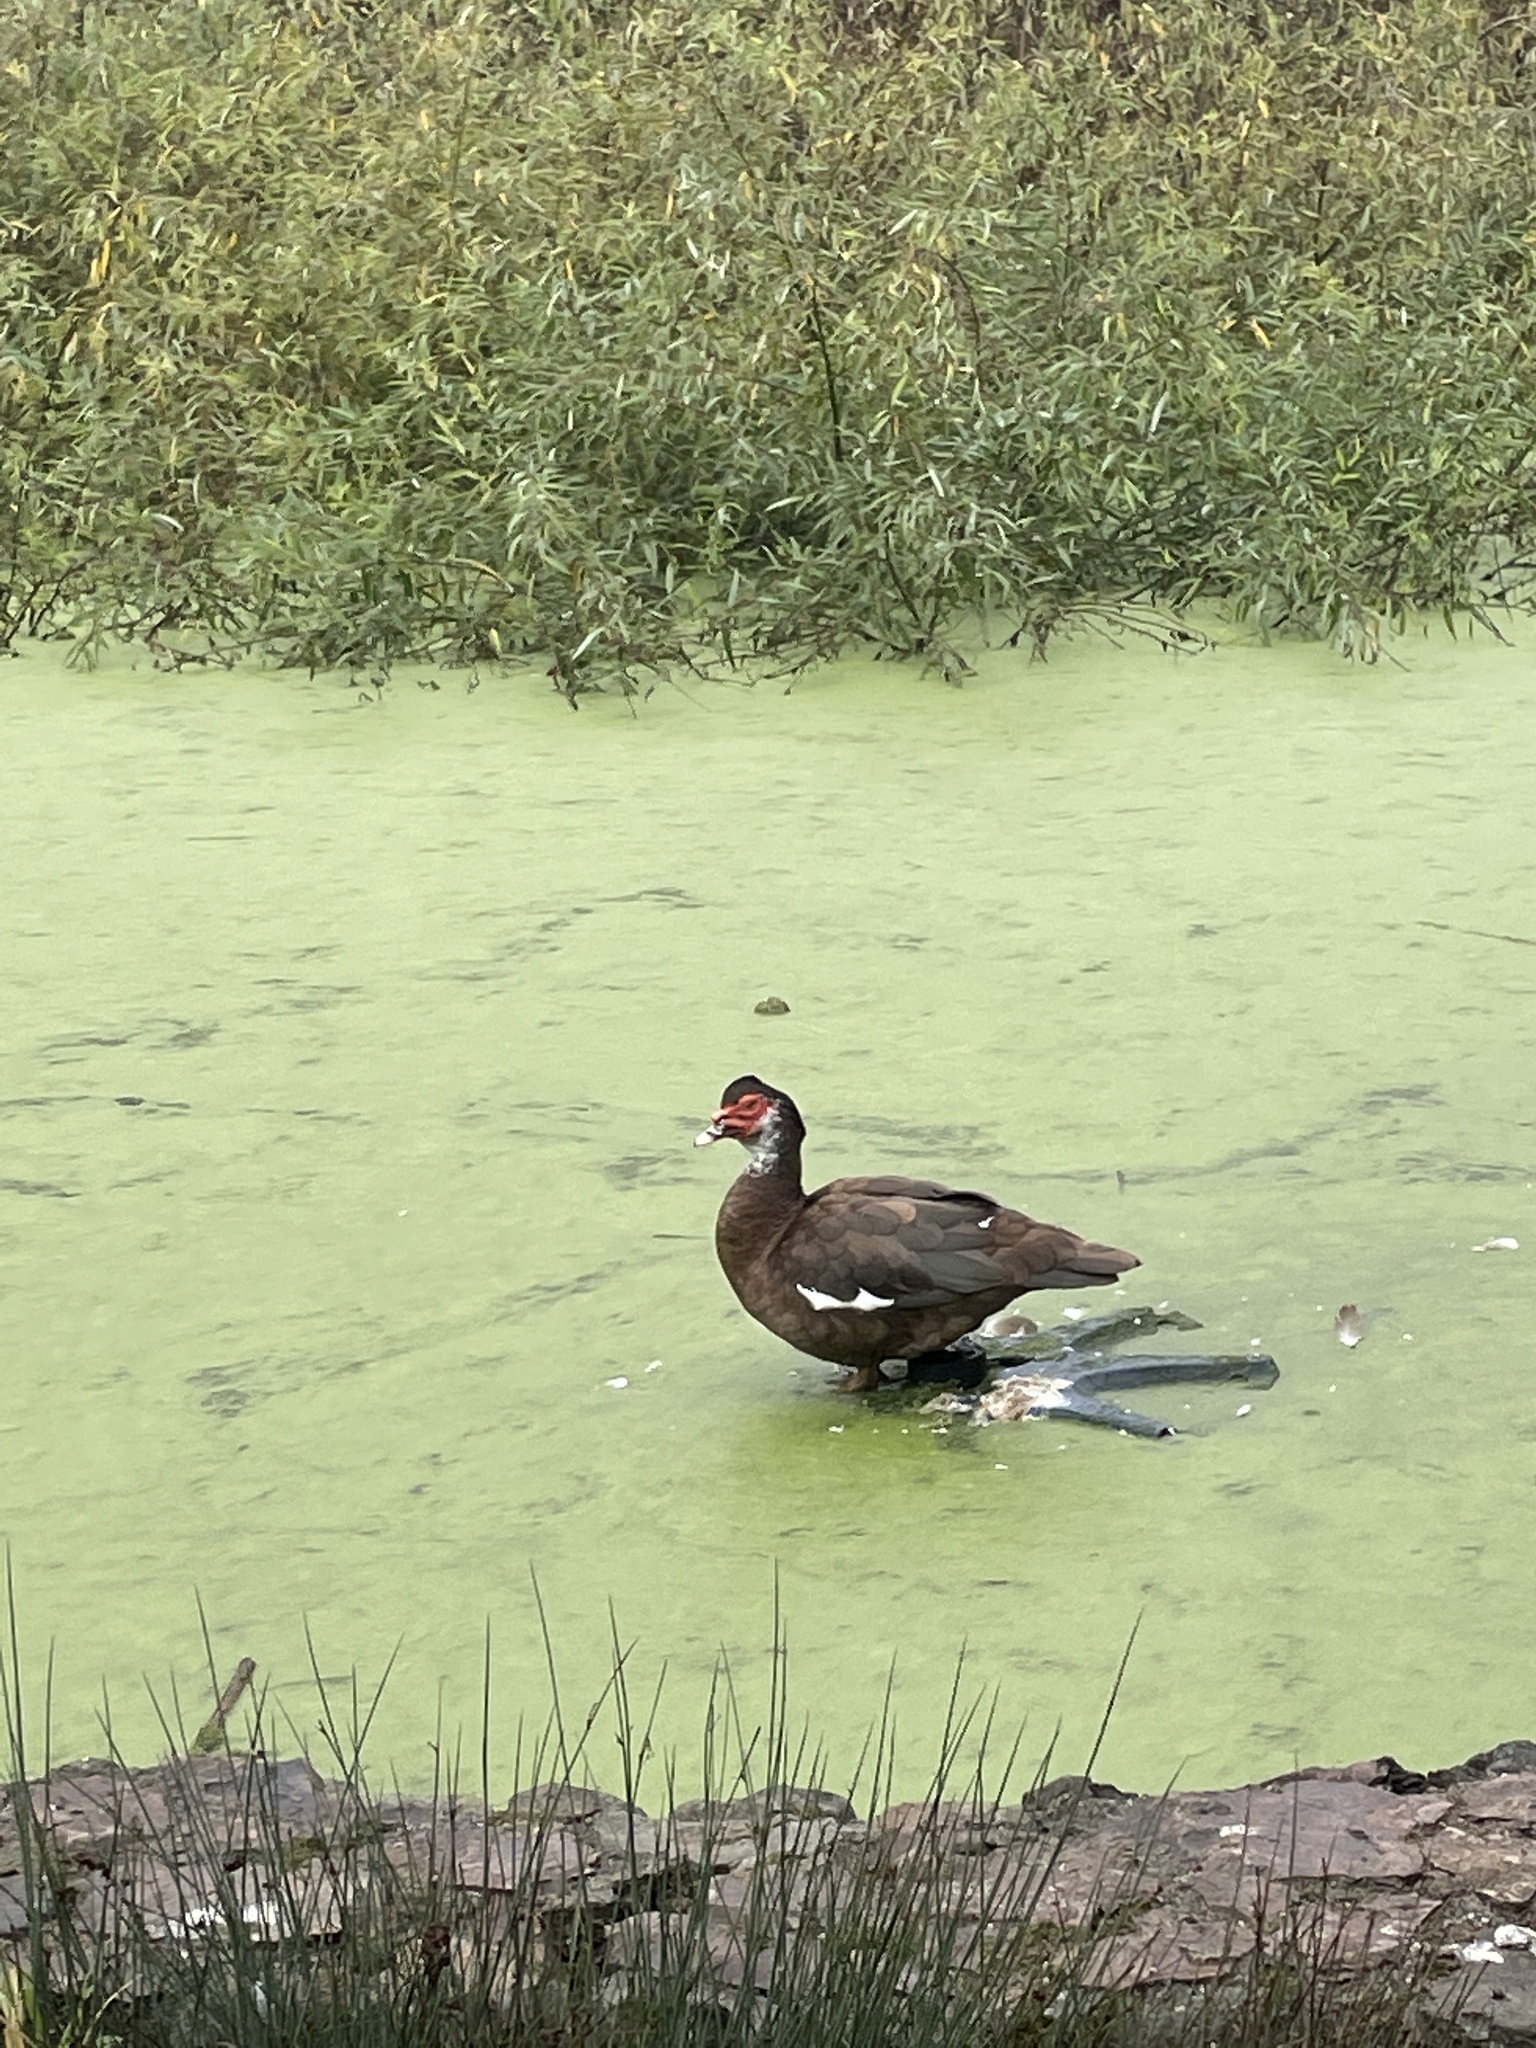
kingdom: Animalia
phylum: Chordata
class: Aves
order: Anseriformes
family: Anatidae
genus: Cairina
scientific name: Cairina moschata
